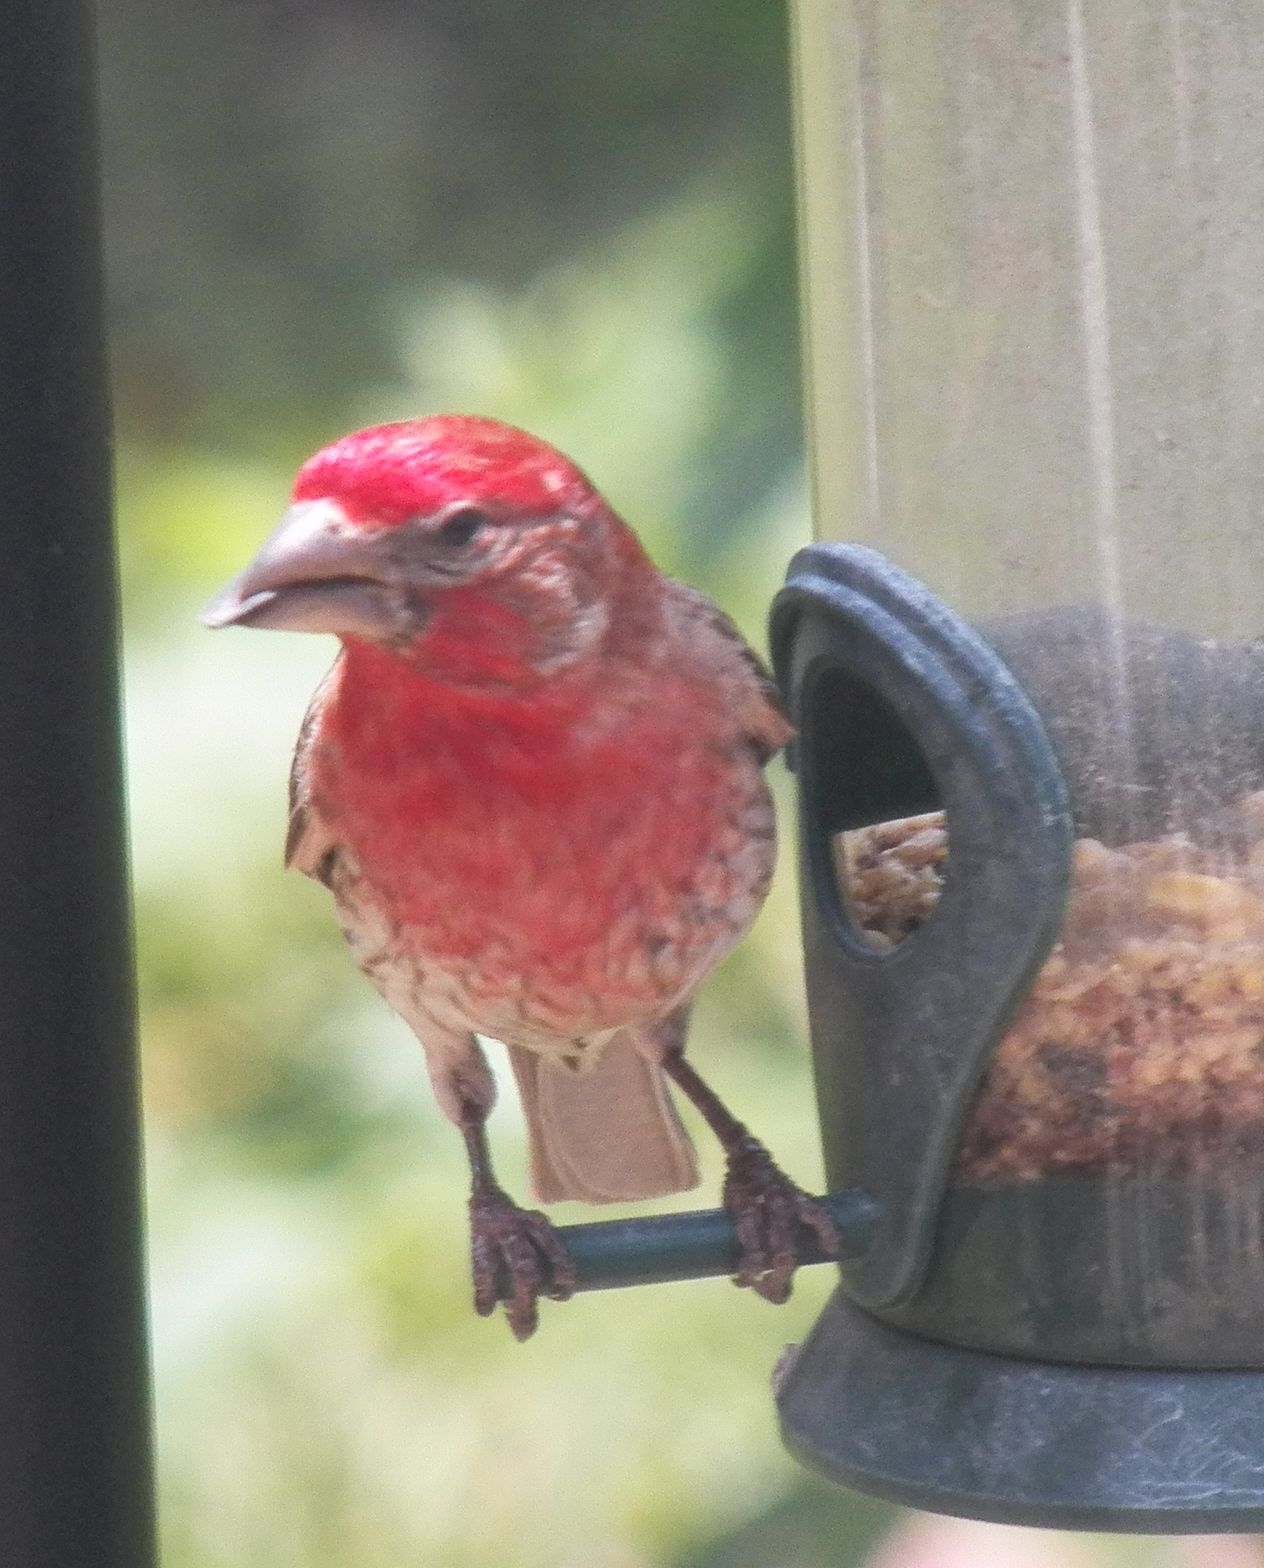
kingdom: Animalia
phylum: Chordata
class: Aves
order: Passeriformes
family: Fringillidae
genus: Haemorhous
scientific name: Haemorhous mexicanus
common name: House finch
